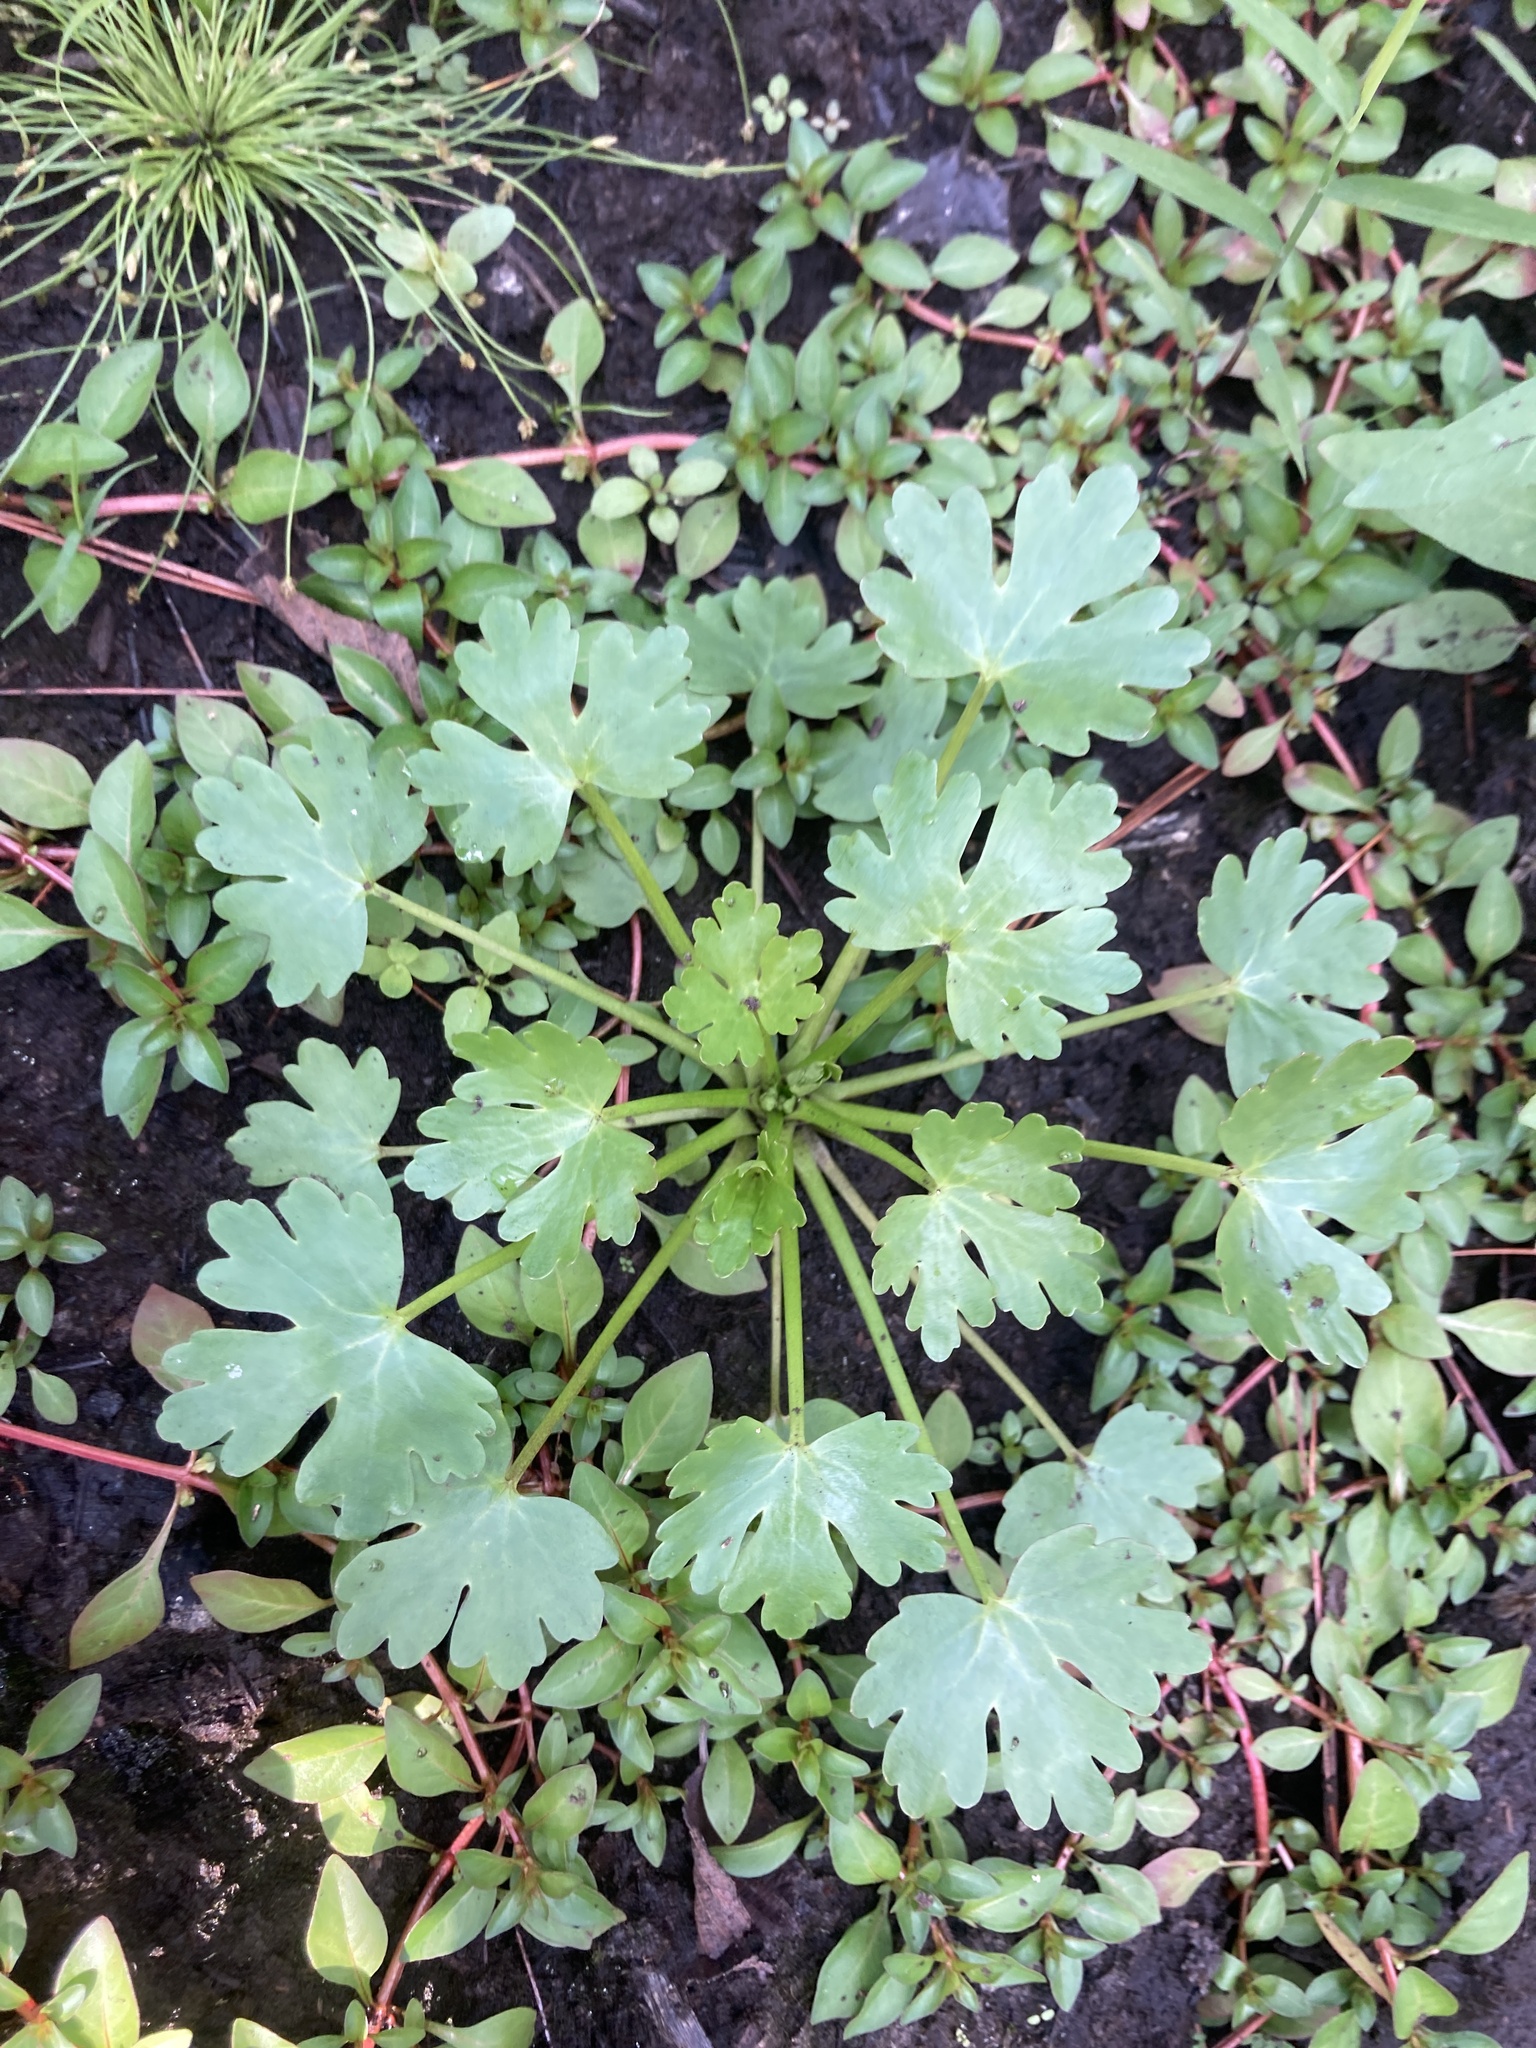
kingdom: Plantae
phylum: Tracheophyta
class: Magnoliopsida
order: Ranunculales
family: Ranunculaceae
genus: Ranunculus
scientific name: Ranunculus sceleratus
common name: Celery-leaved buttercup
